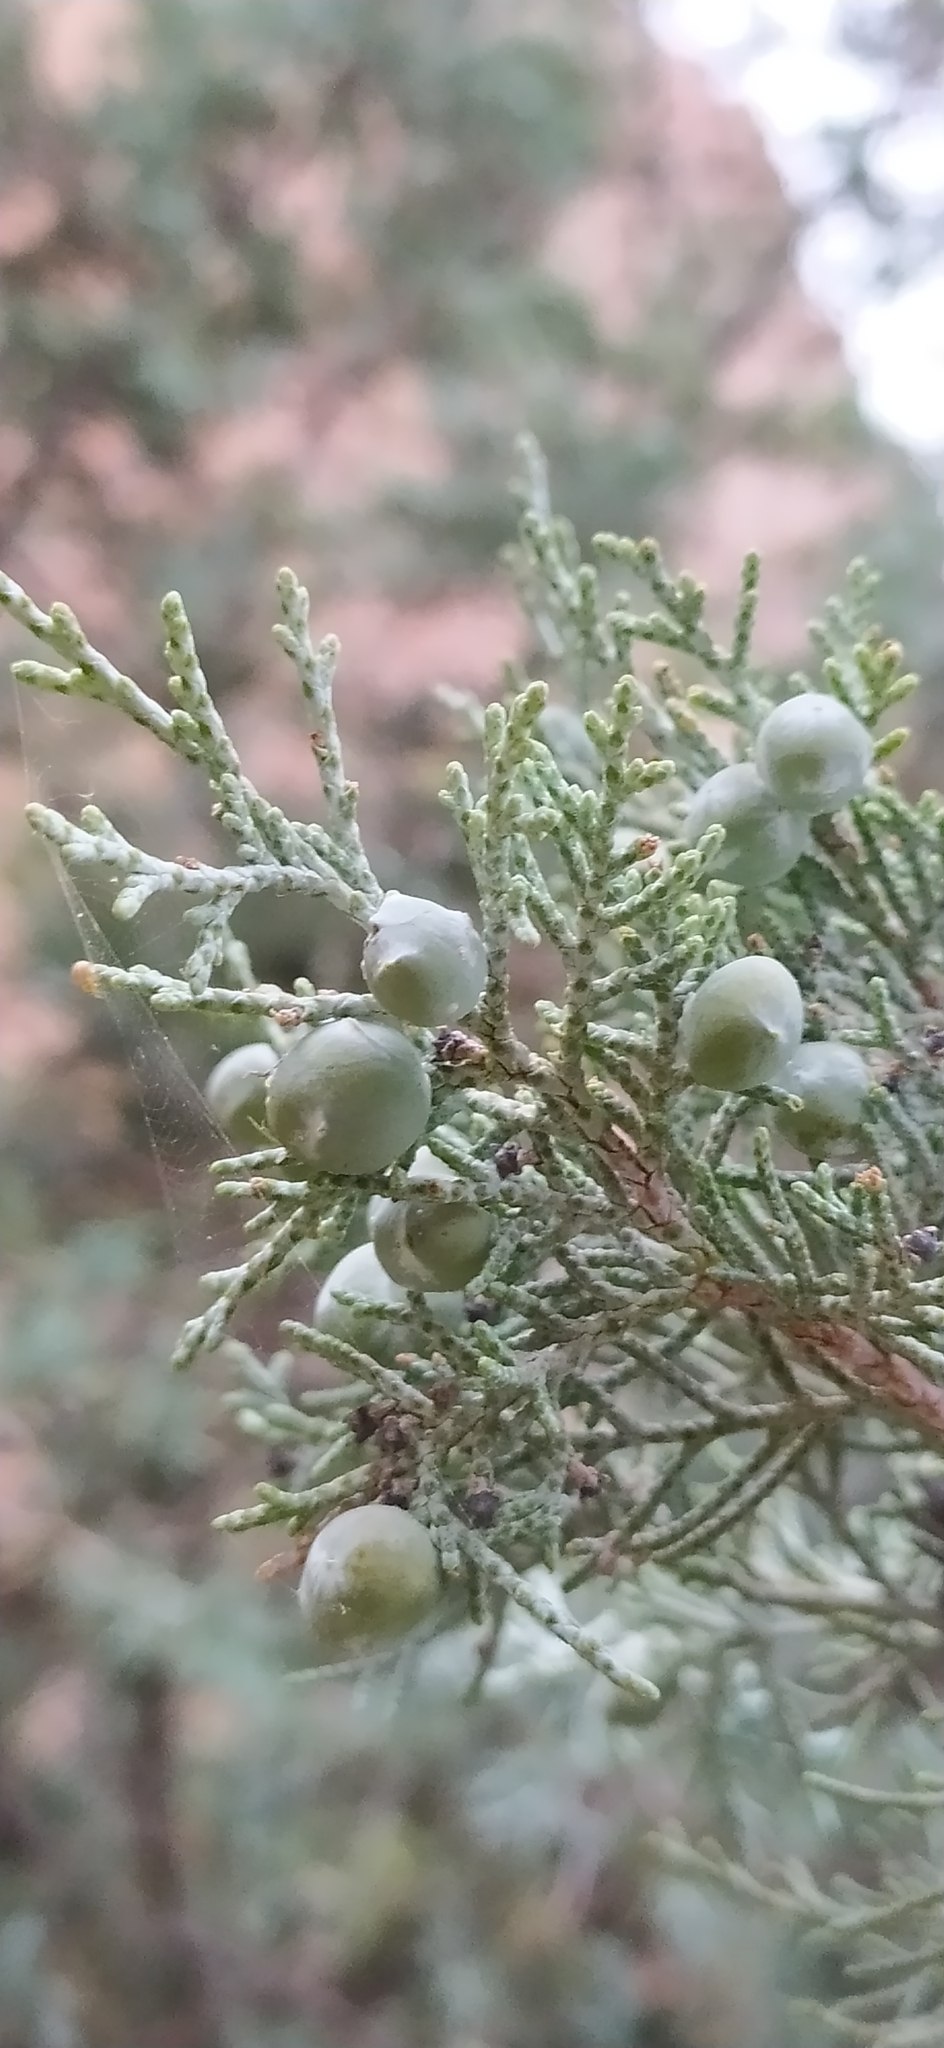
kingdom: Plantae
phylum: Tracheophyta
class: Pinopsida
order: Pinales
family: Cupressaceae
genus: Juniperus
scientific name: Juniperus excelsa
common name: Crimean juniper
